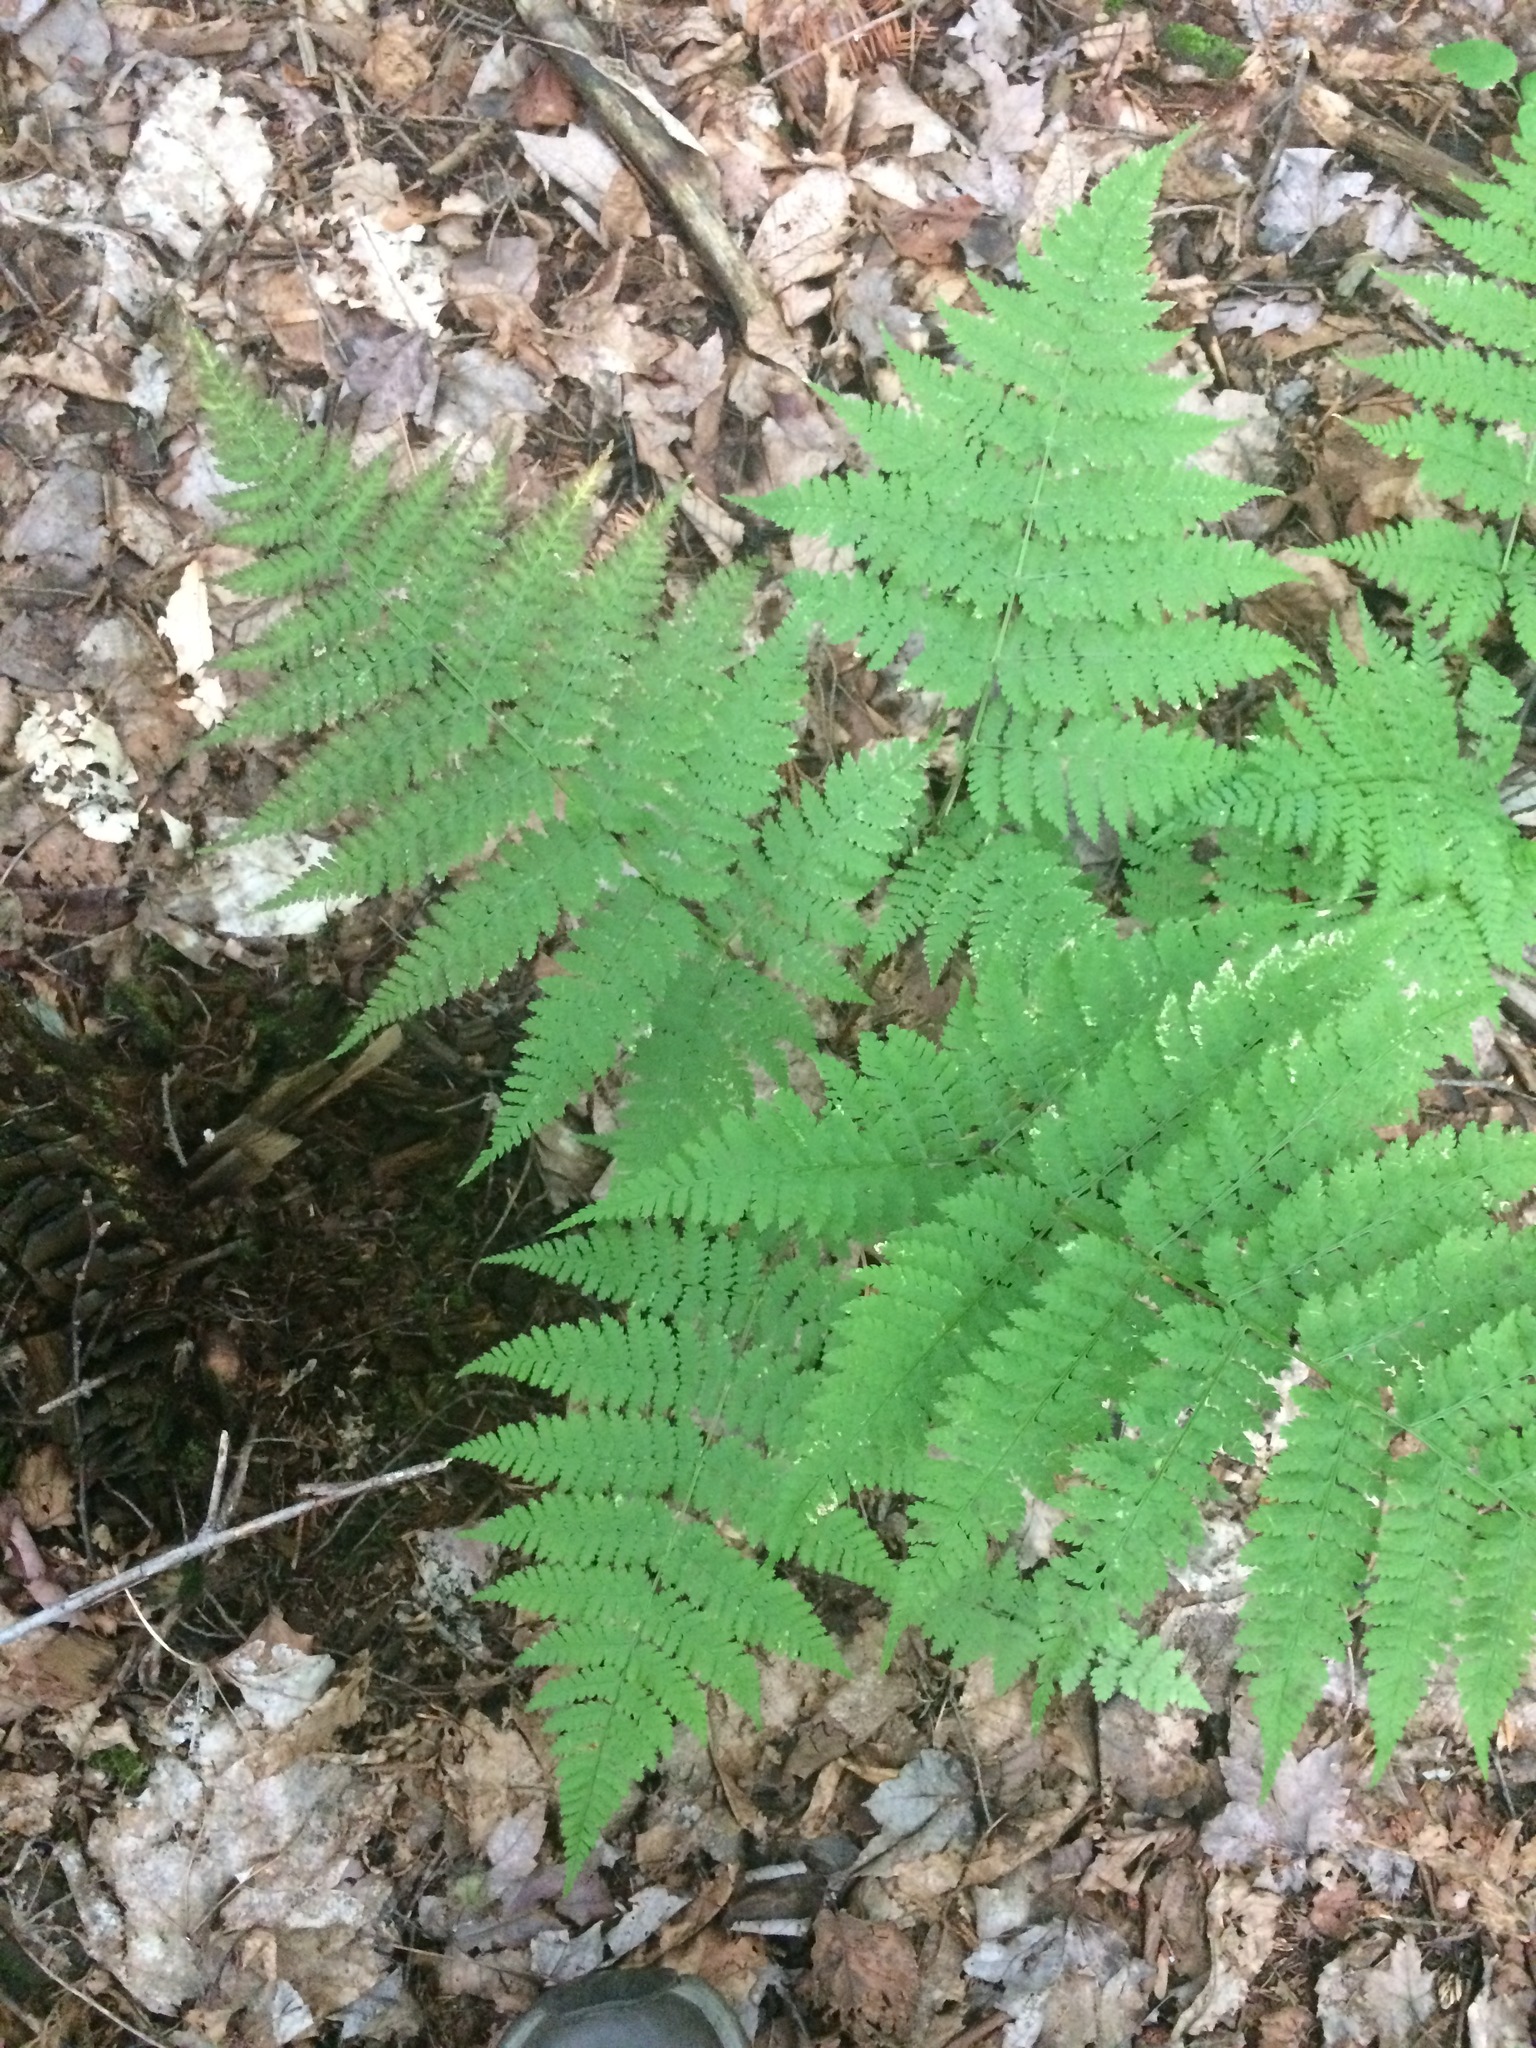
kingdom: Plantae
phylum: Tracheophyta
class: Polypodiopsida
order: Polypodiales
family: Dryopteridaceae
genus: Dryopteris
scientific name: Dryopteris campyloptera
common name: Mountain wood fern
